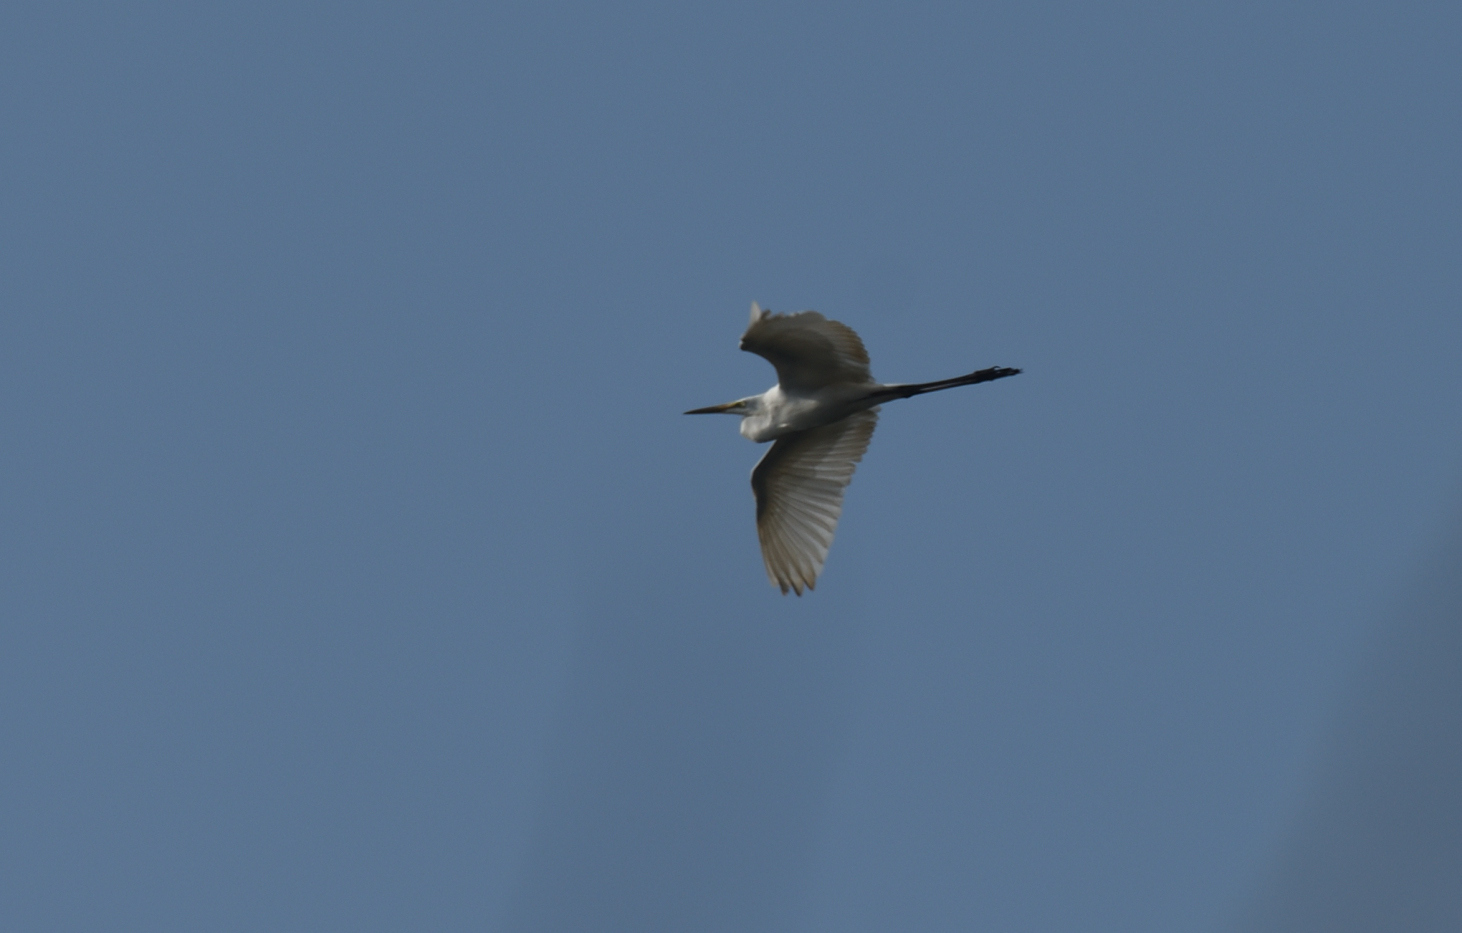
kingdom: Animalia
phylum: Chordata
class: Aves
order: Pelecaniformes
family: Ardeidae
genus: Ardea
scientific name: Ardea alba
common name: Great egret
